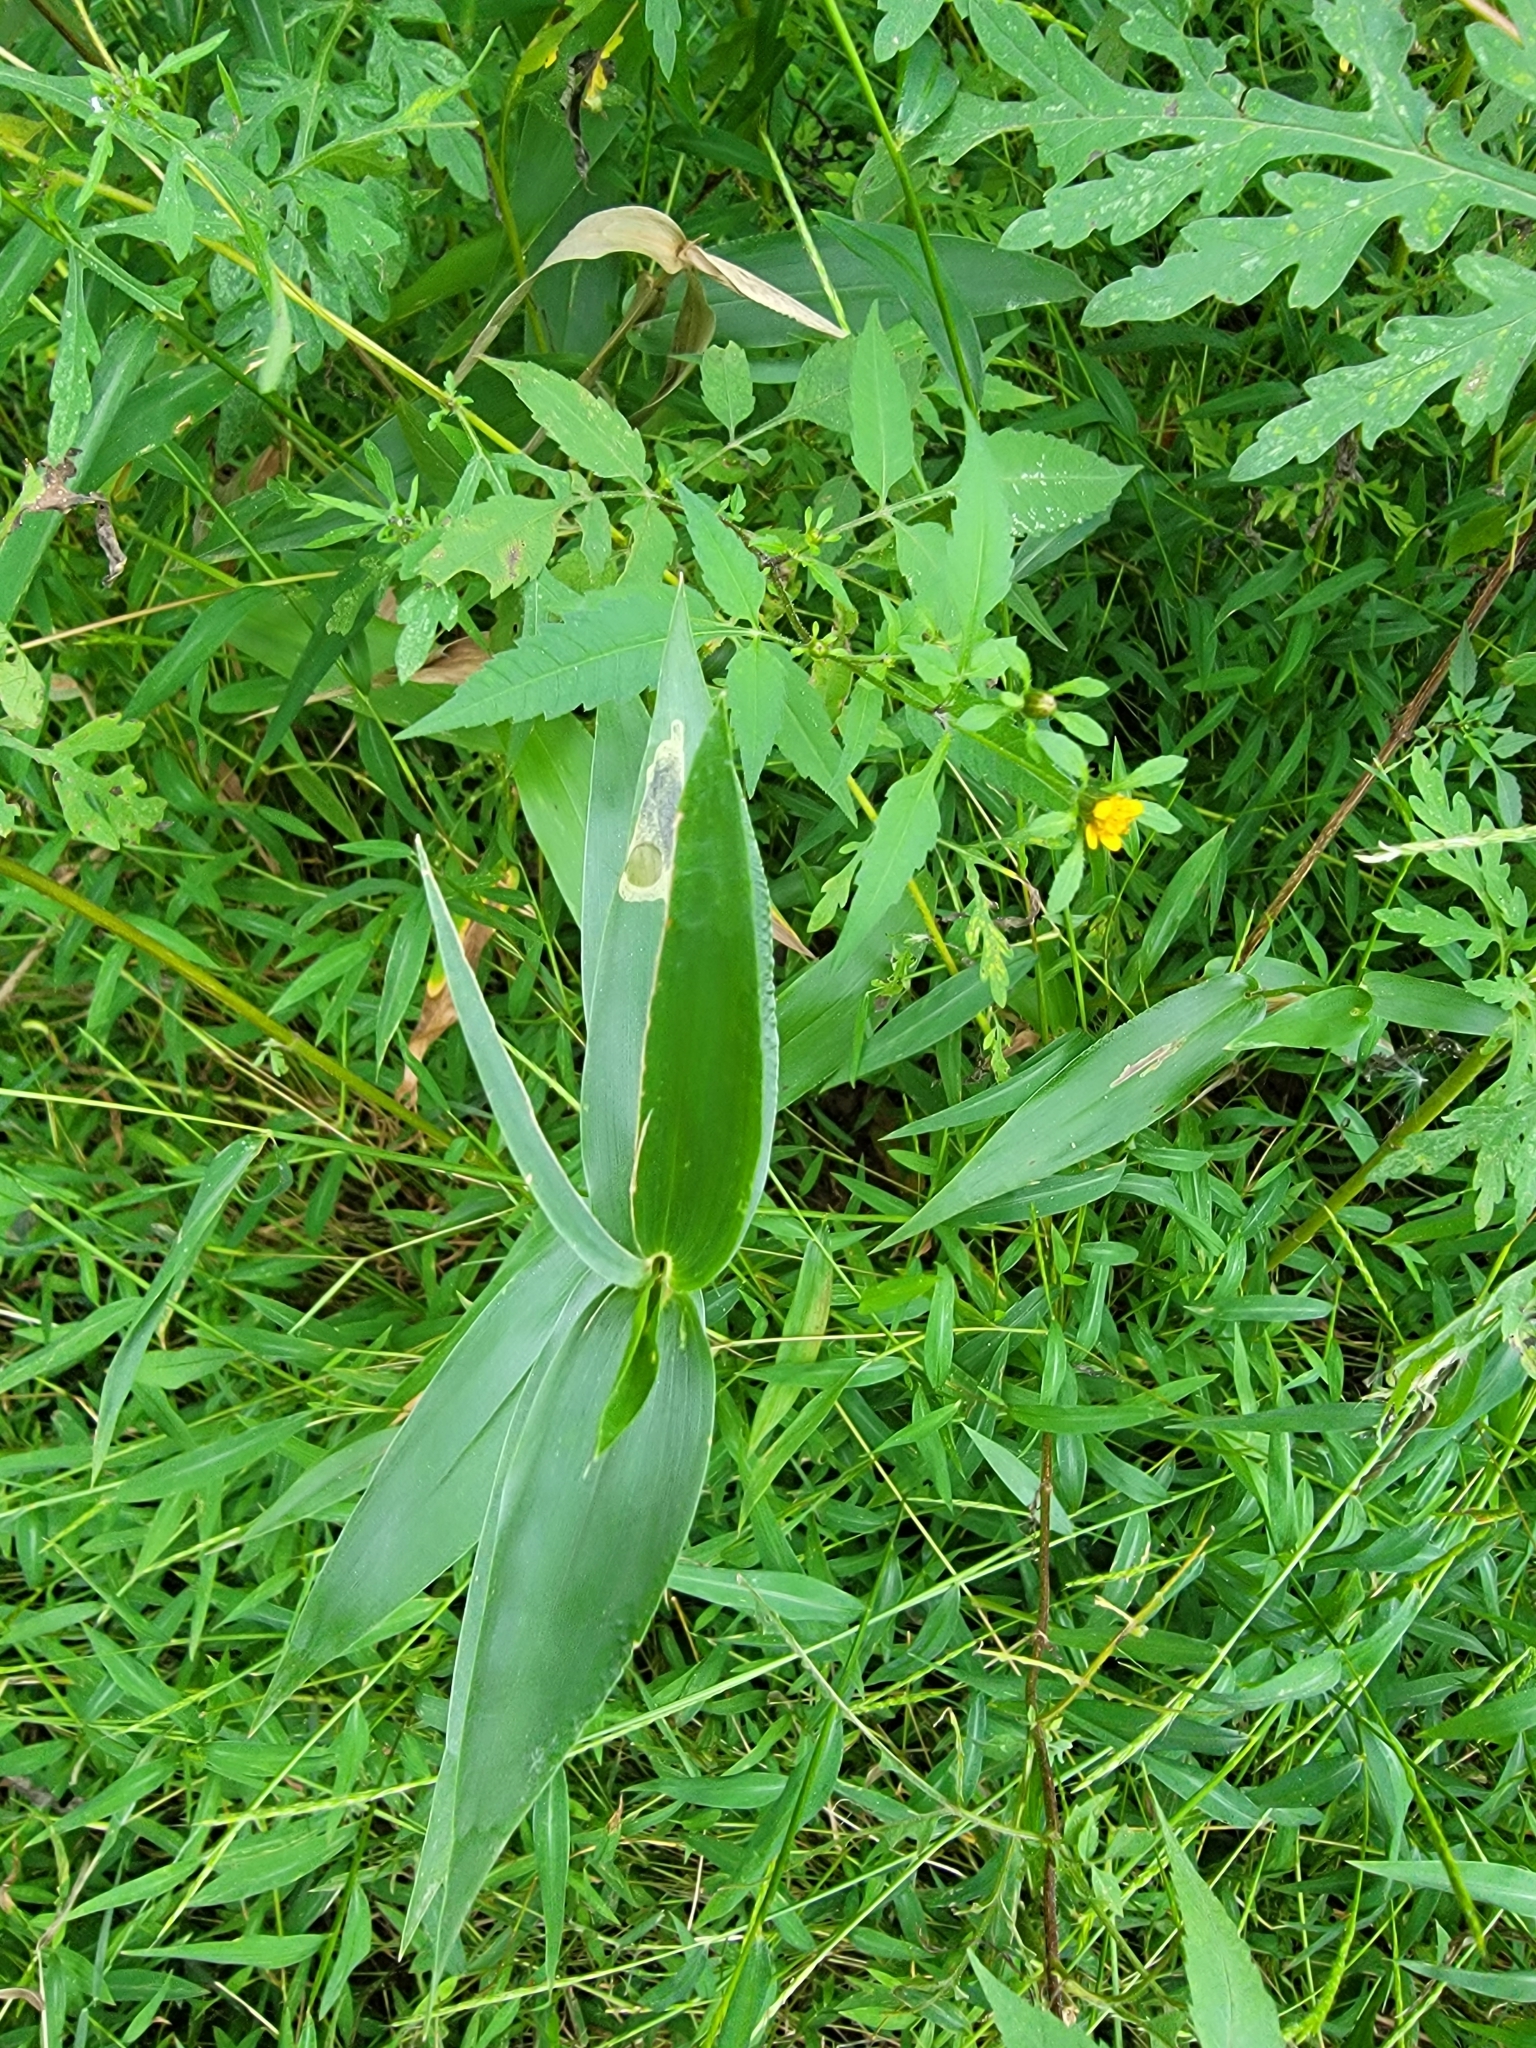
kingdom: Plantae
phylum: Tracheophyta
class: Liliopsida
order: Poales
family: Poaceae
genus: Dichanthelium
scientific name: Dichanthelium clandestinum
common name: Deer-tongue grass
